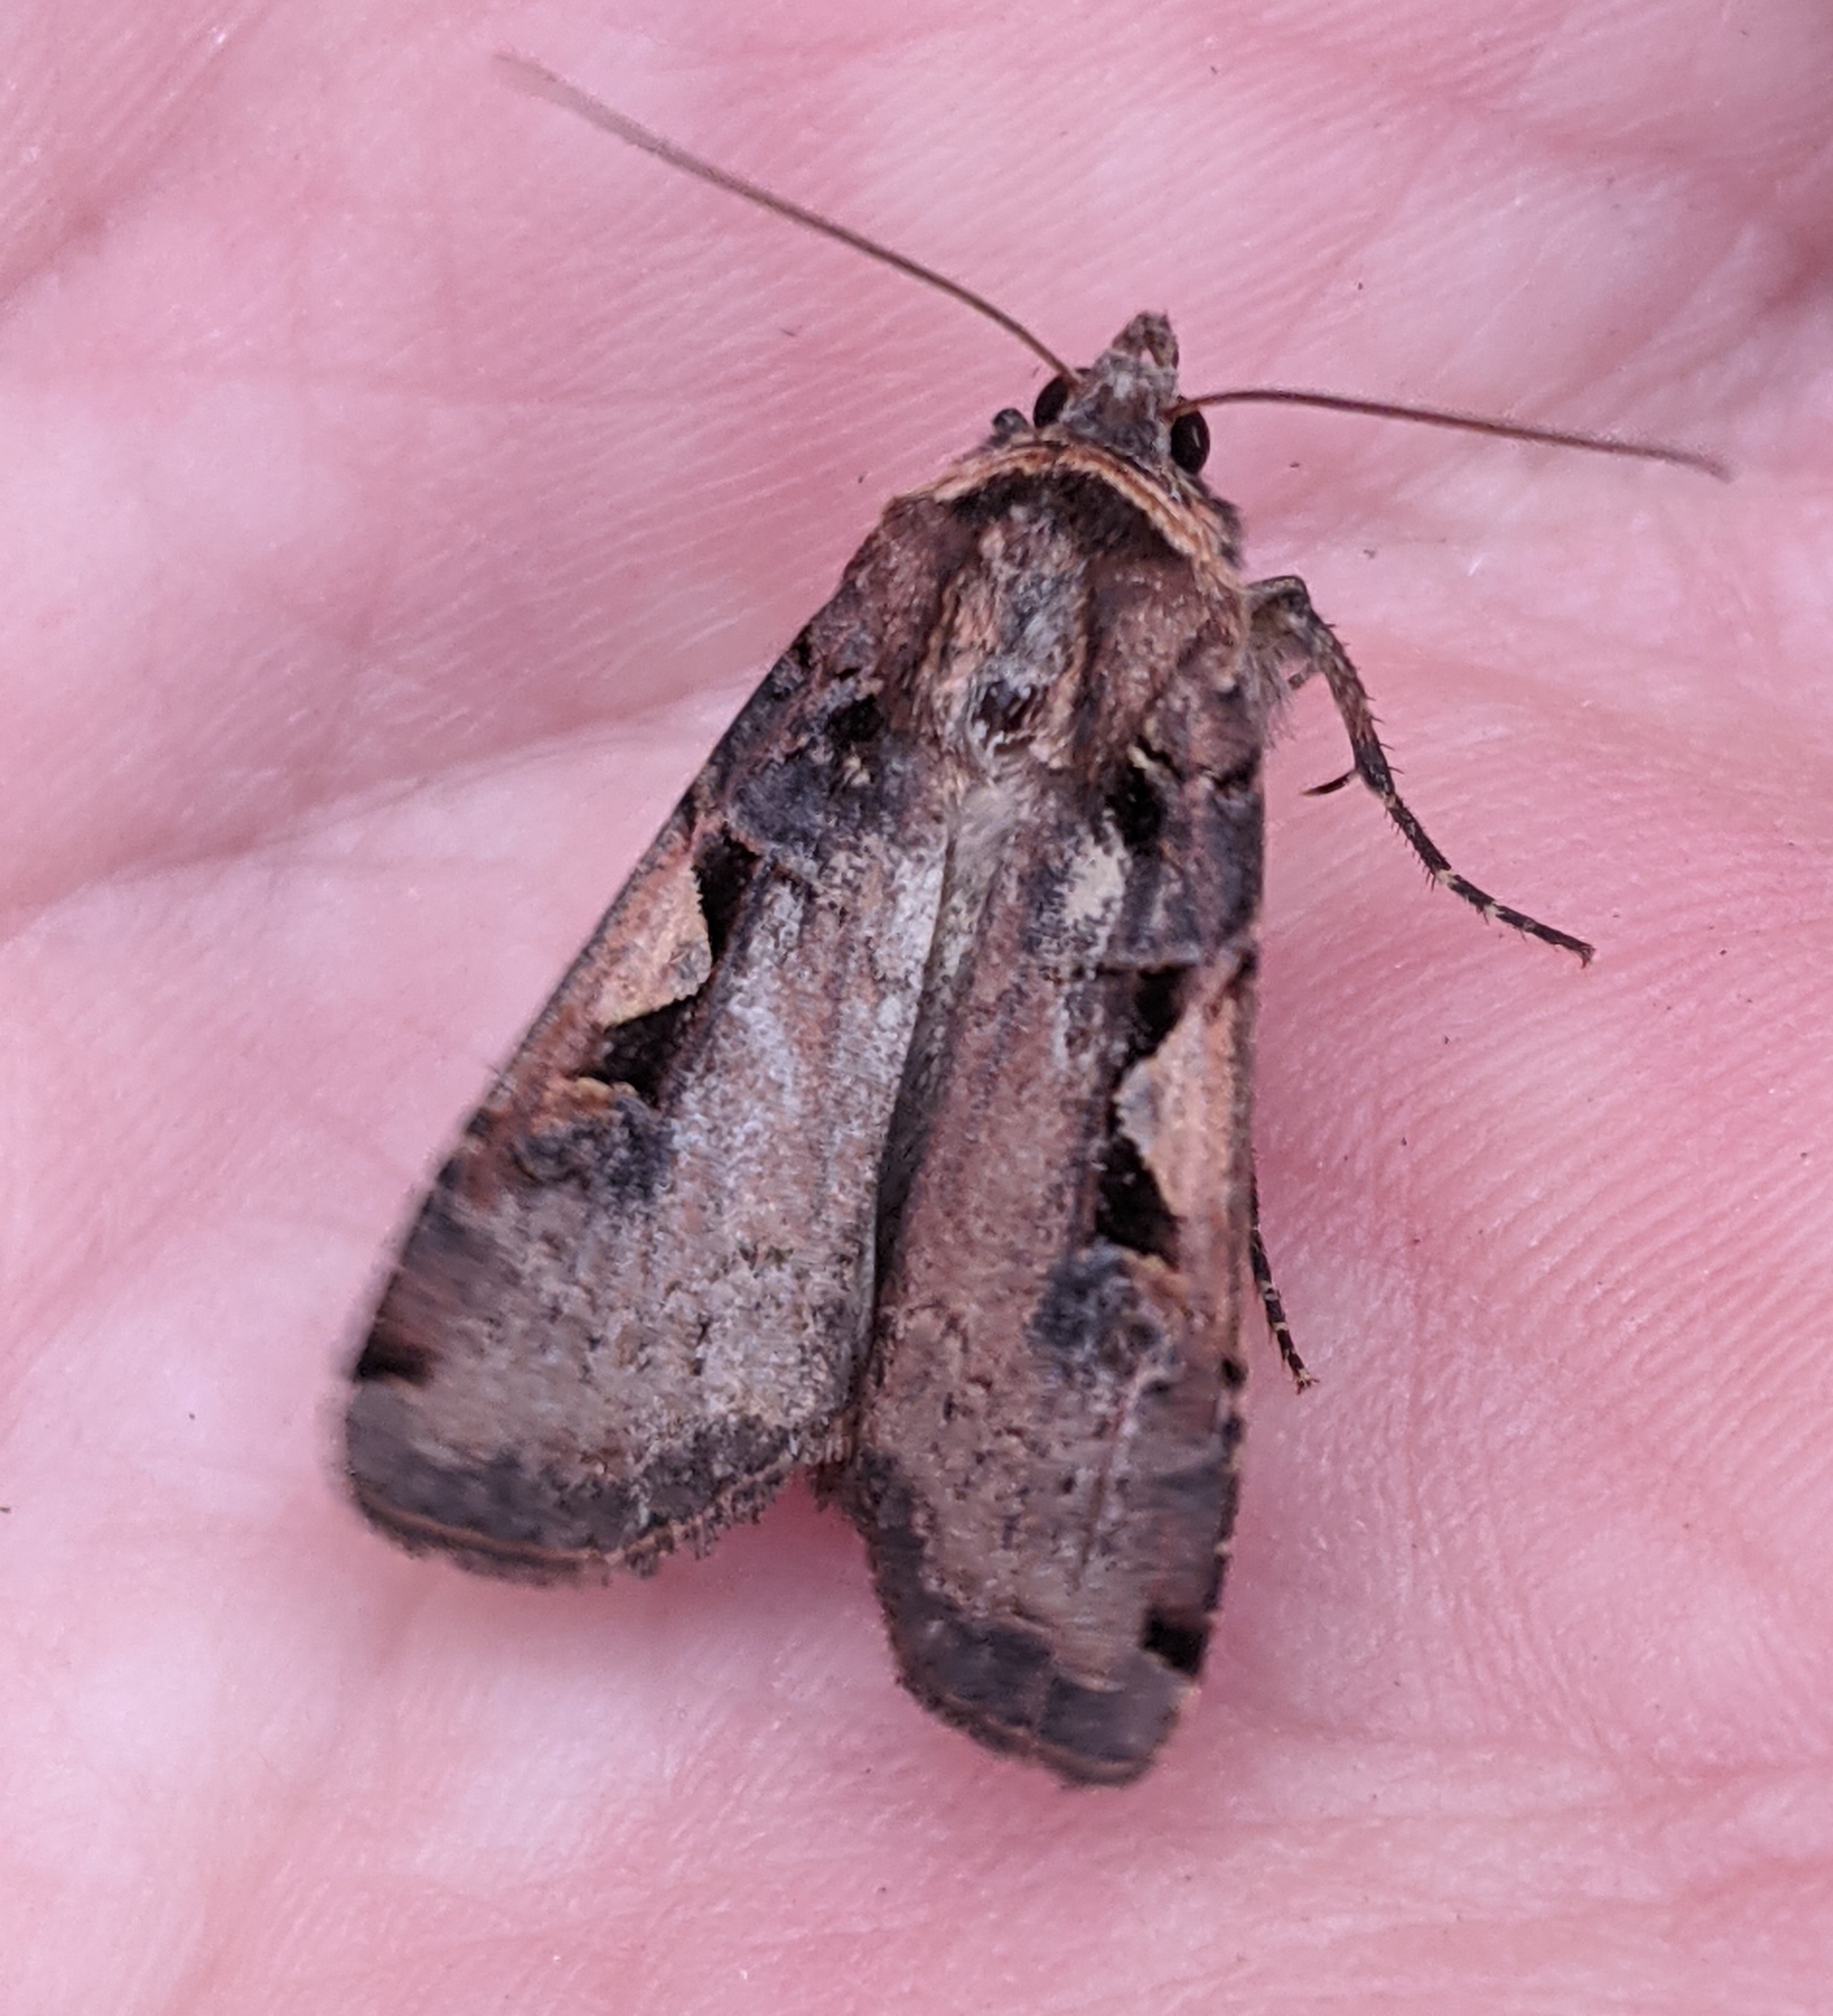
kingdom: Animalia
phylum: Arthropoda
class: Insecta
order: Lepidoptera
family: Noctuidae
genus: Xestia
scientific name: Xestia c-nigrum
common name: Setaceous hebrew character
